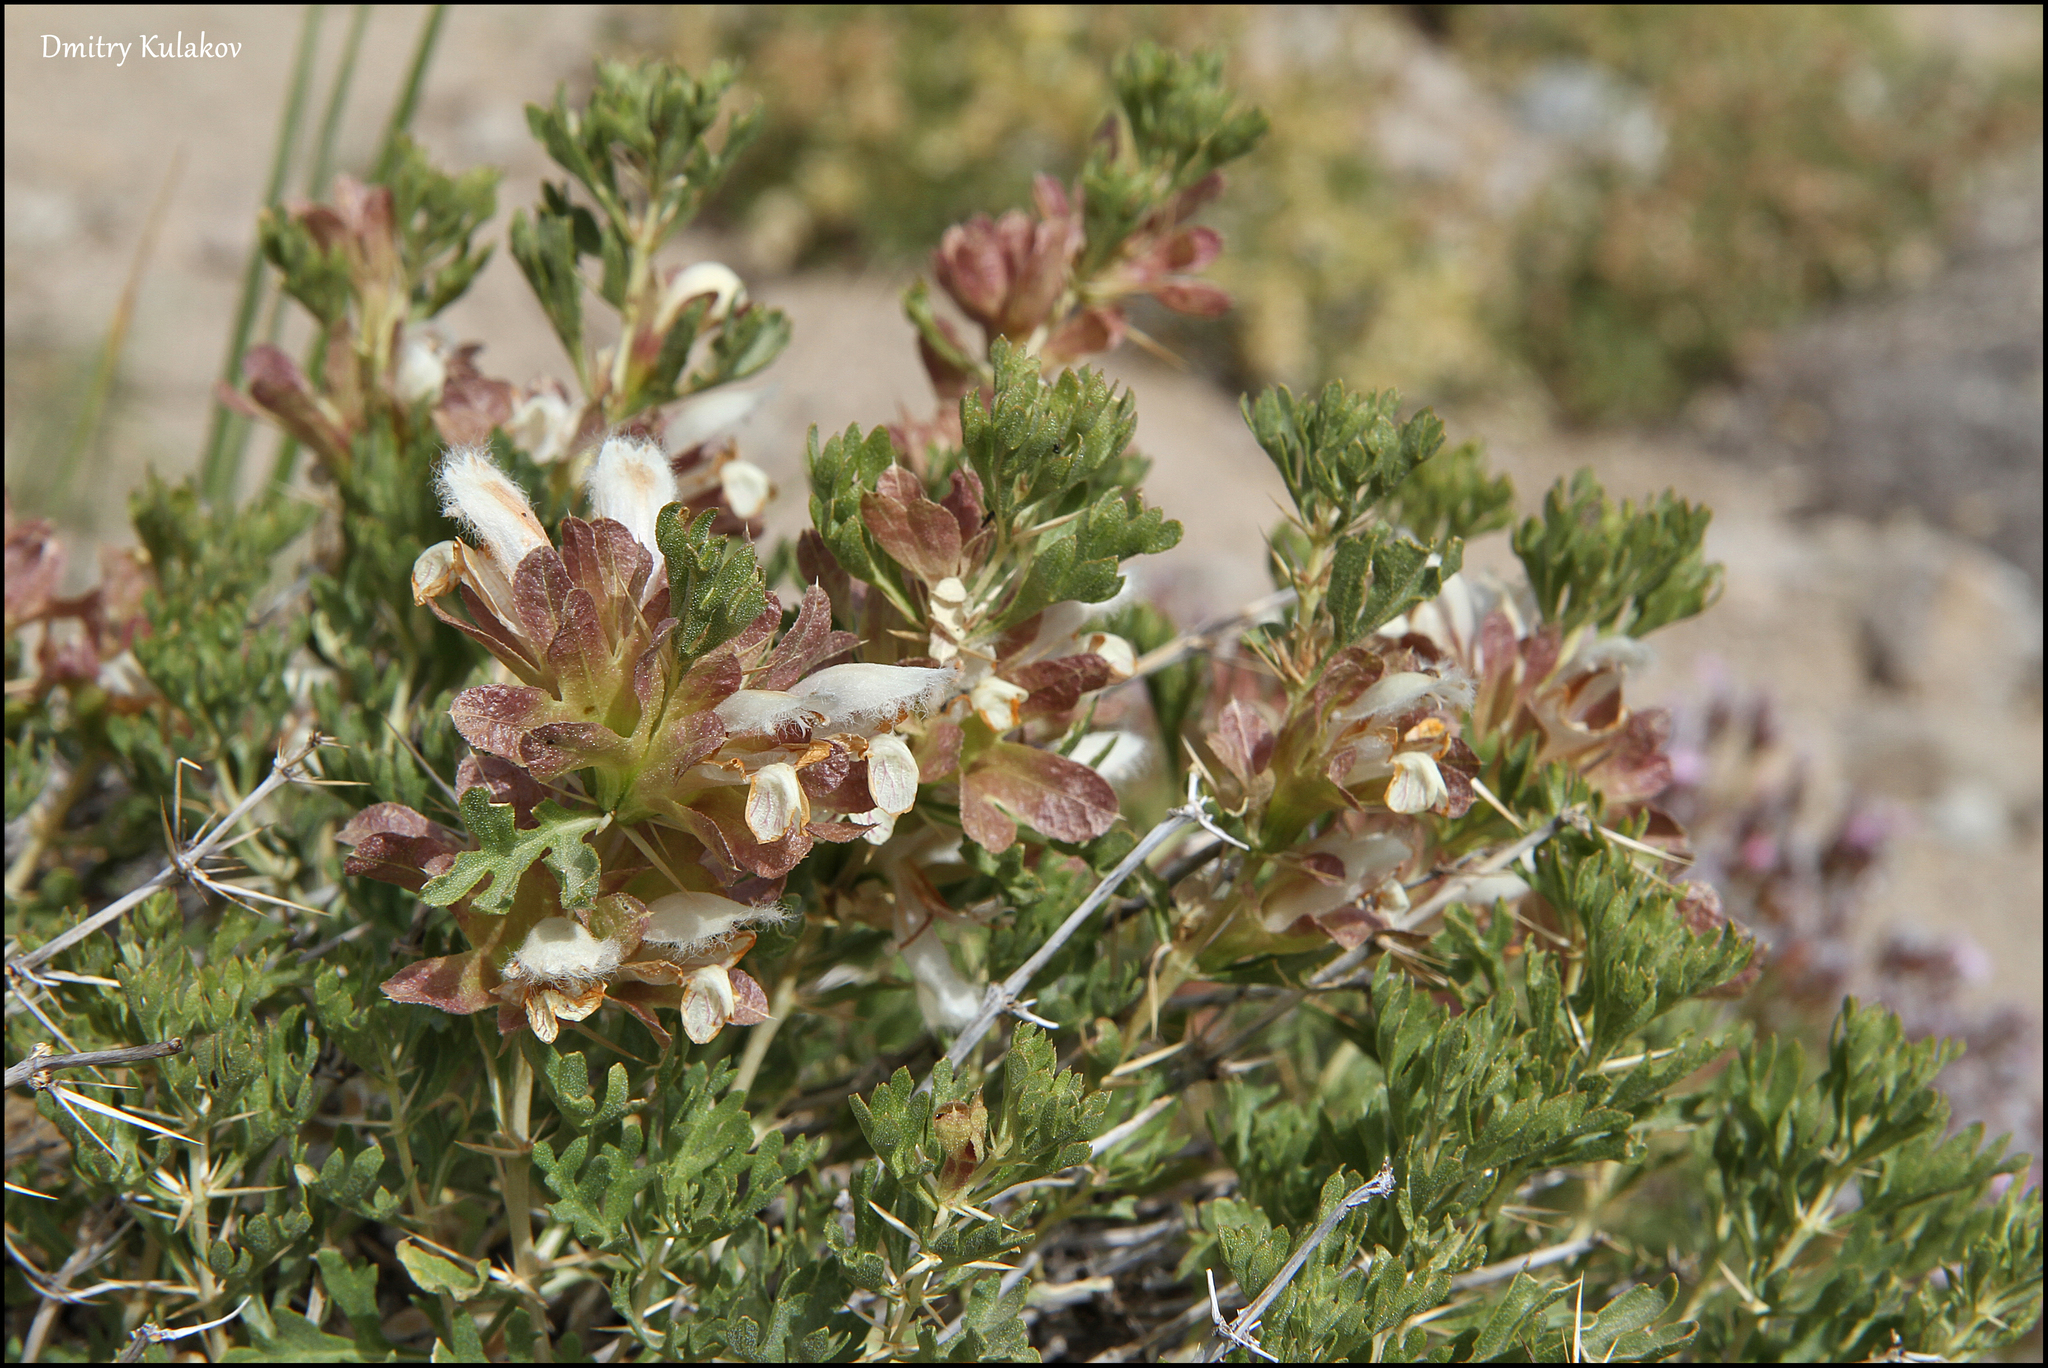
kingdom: Plantae
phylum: Tracheophyta
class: Magnoliopsida
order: Lamiales
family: Lamiaceae
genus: Lagochilus
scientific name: Lagochilus seravschanicus
